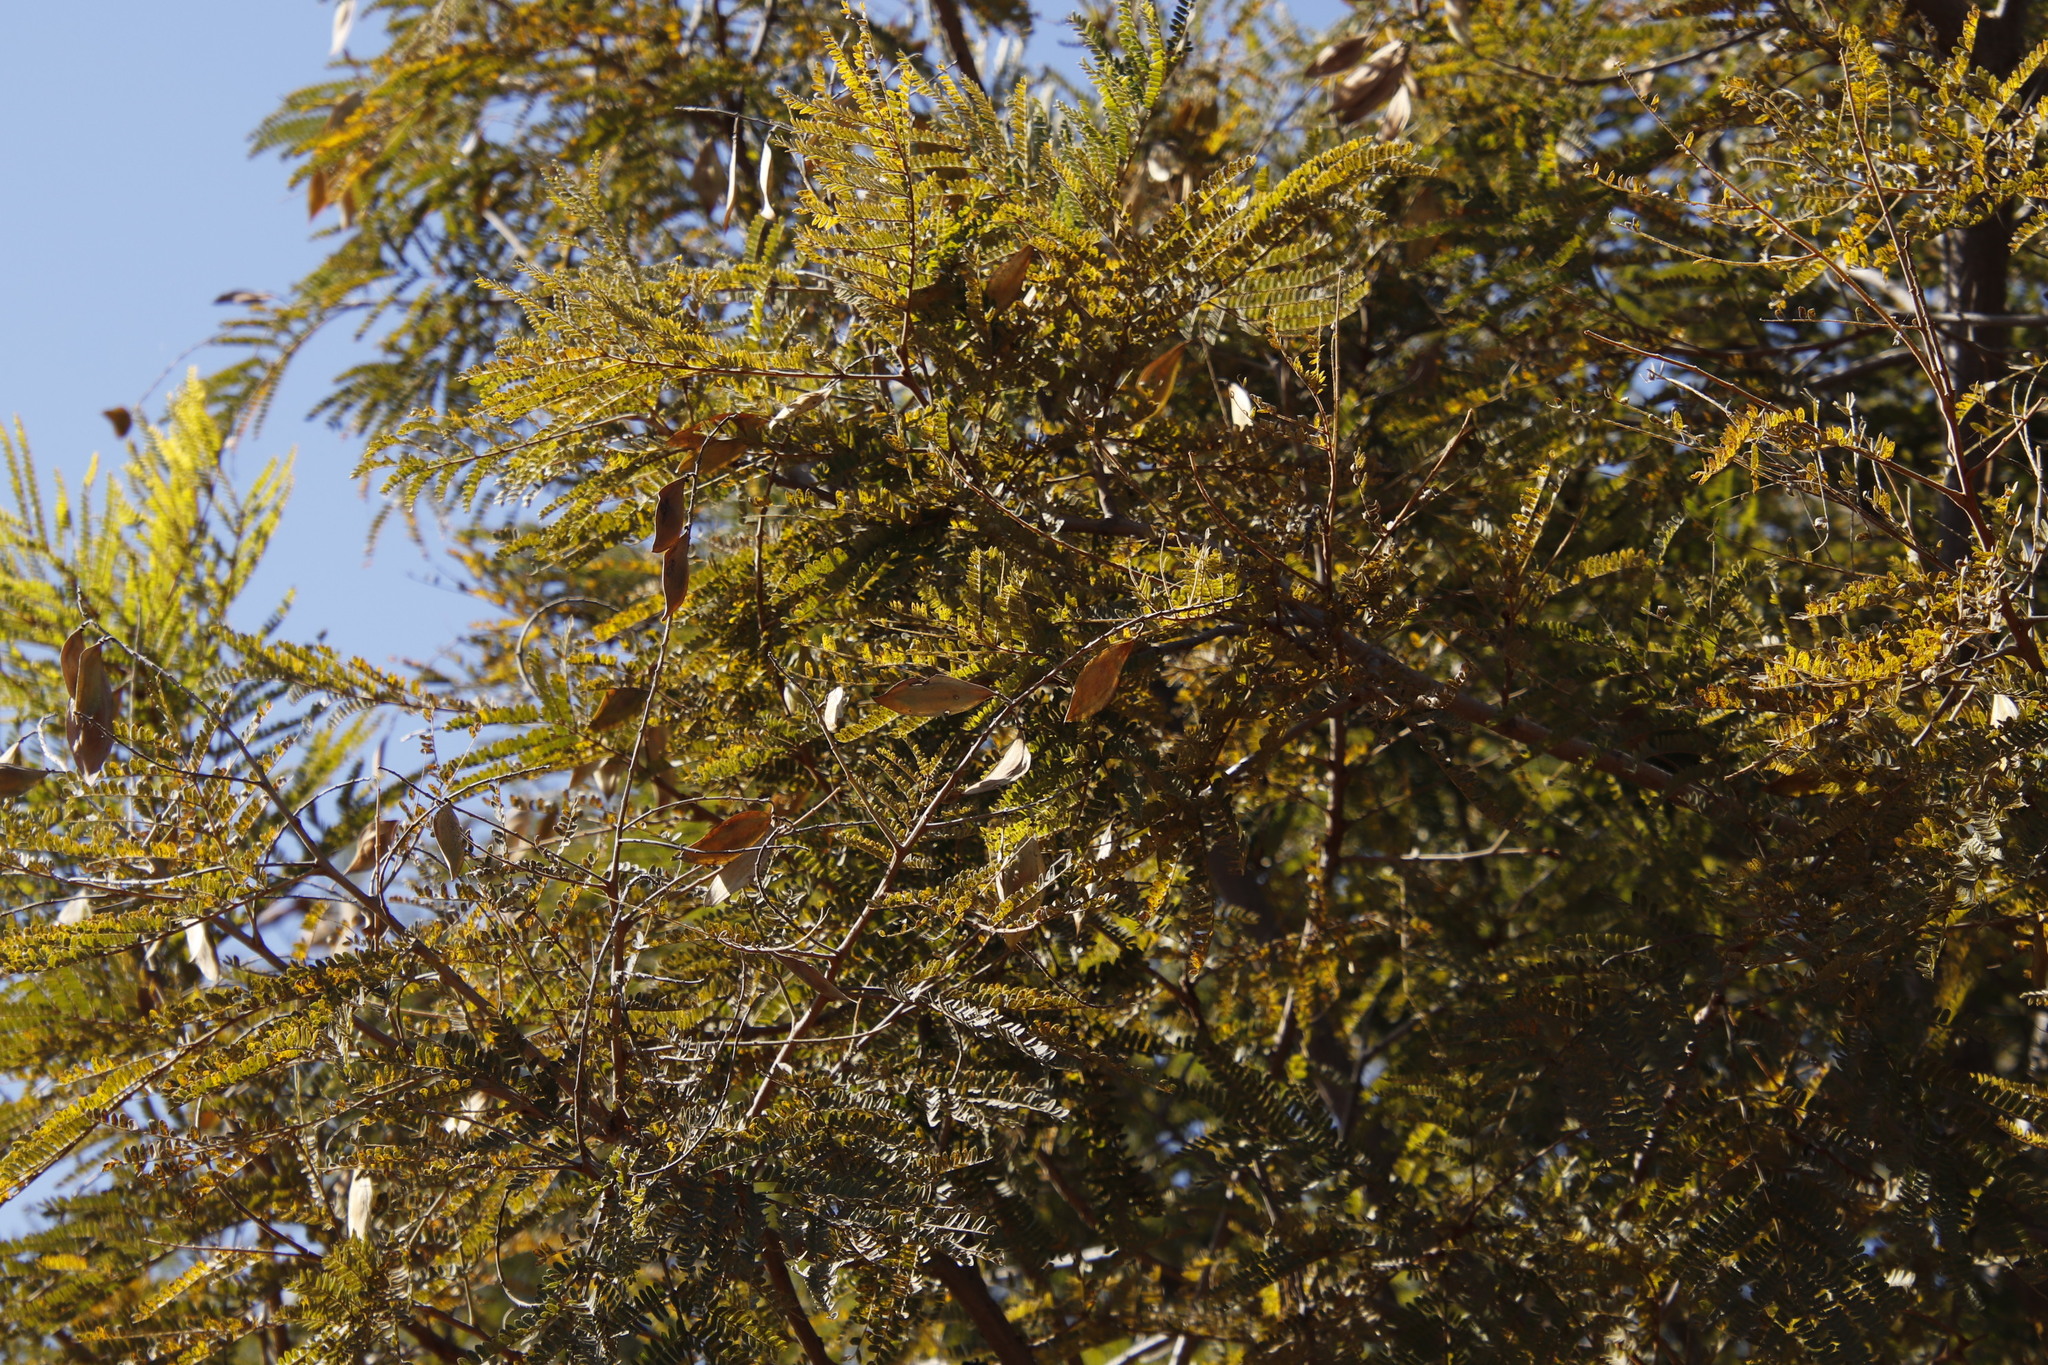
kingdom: Plantae
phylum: Tracheophyta
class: Magnoliopsida
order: Fabales
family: Fabaceae
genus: Peltophorum
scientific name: Peltophorum africanum
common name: African black wattle
